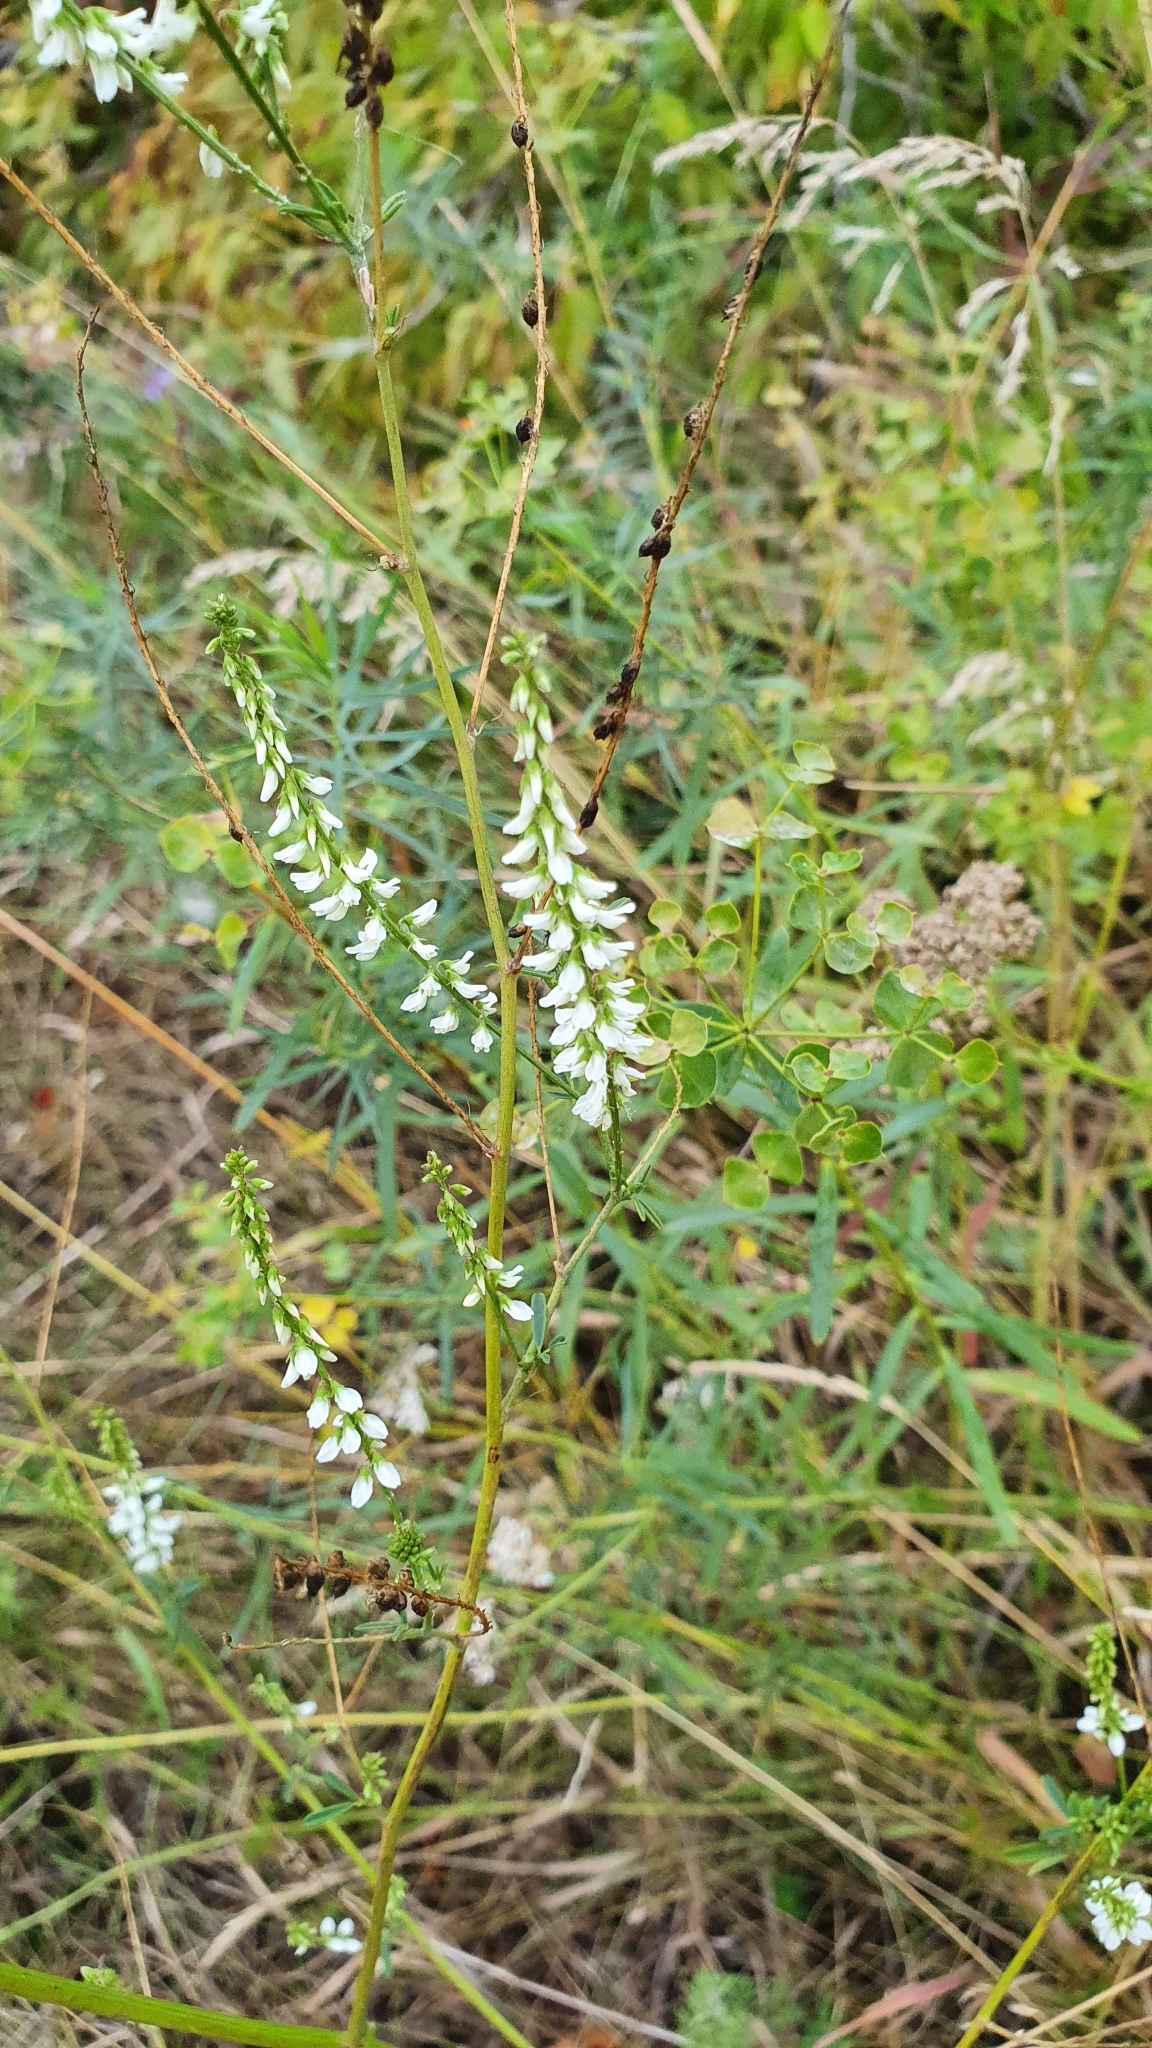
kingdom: Plantae
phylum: Tracheophyta
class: Magnoliopsida
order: Fabales
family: Fabaceae
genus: Melilotus
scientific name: Melilotus albus
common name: White melilot
